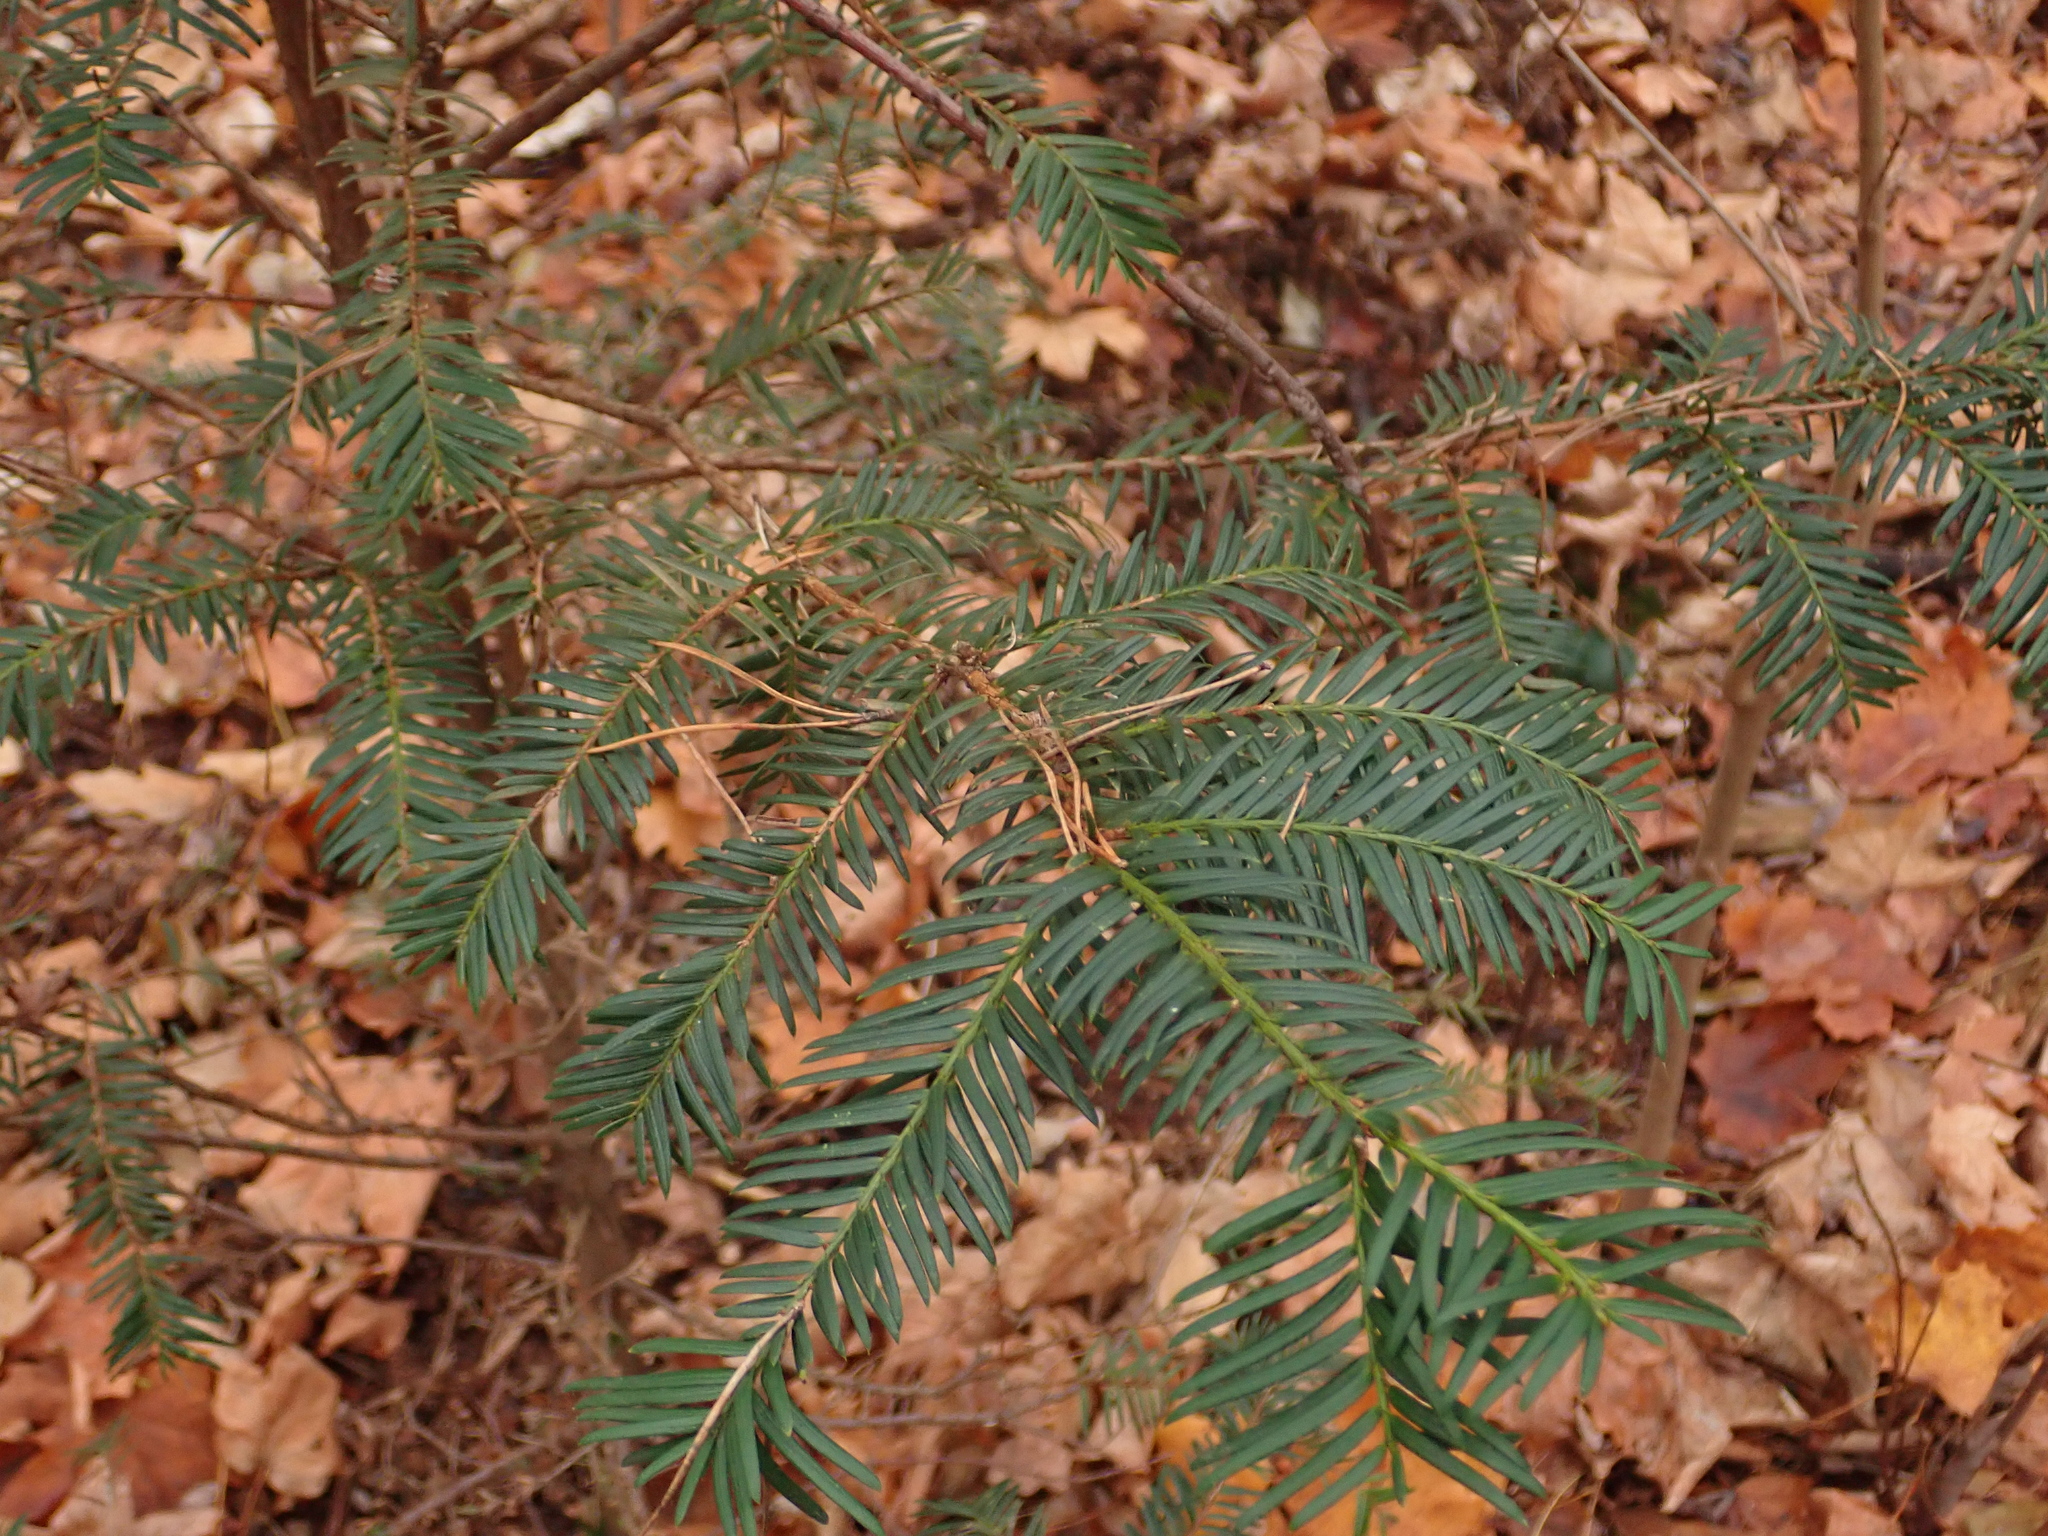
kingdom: Plantae
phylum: Tracheophyta
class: Pinopsida
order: Pinales
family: Taxaceae
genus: Taxus
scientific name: Taxus baccata
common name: Yew
